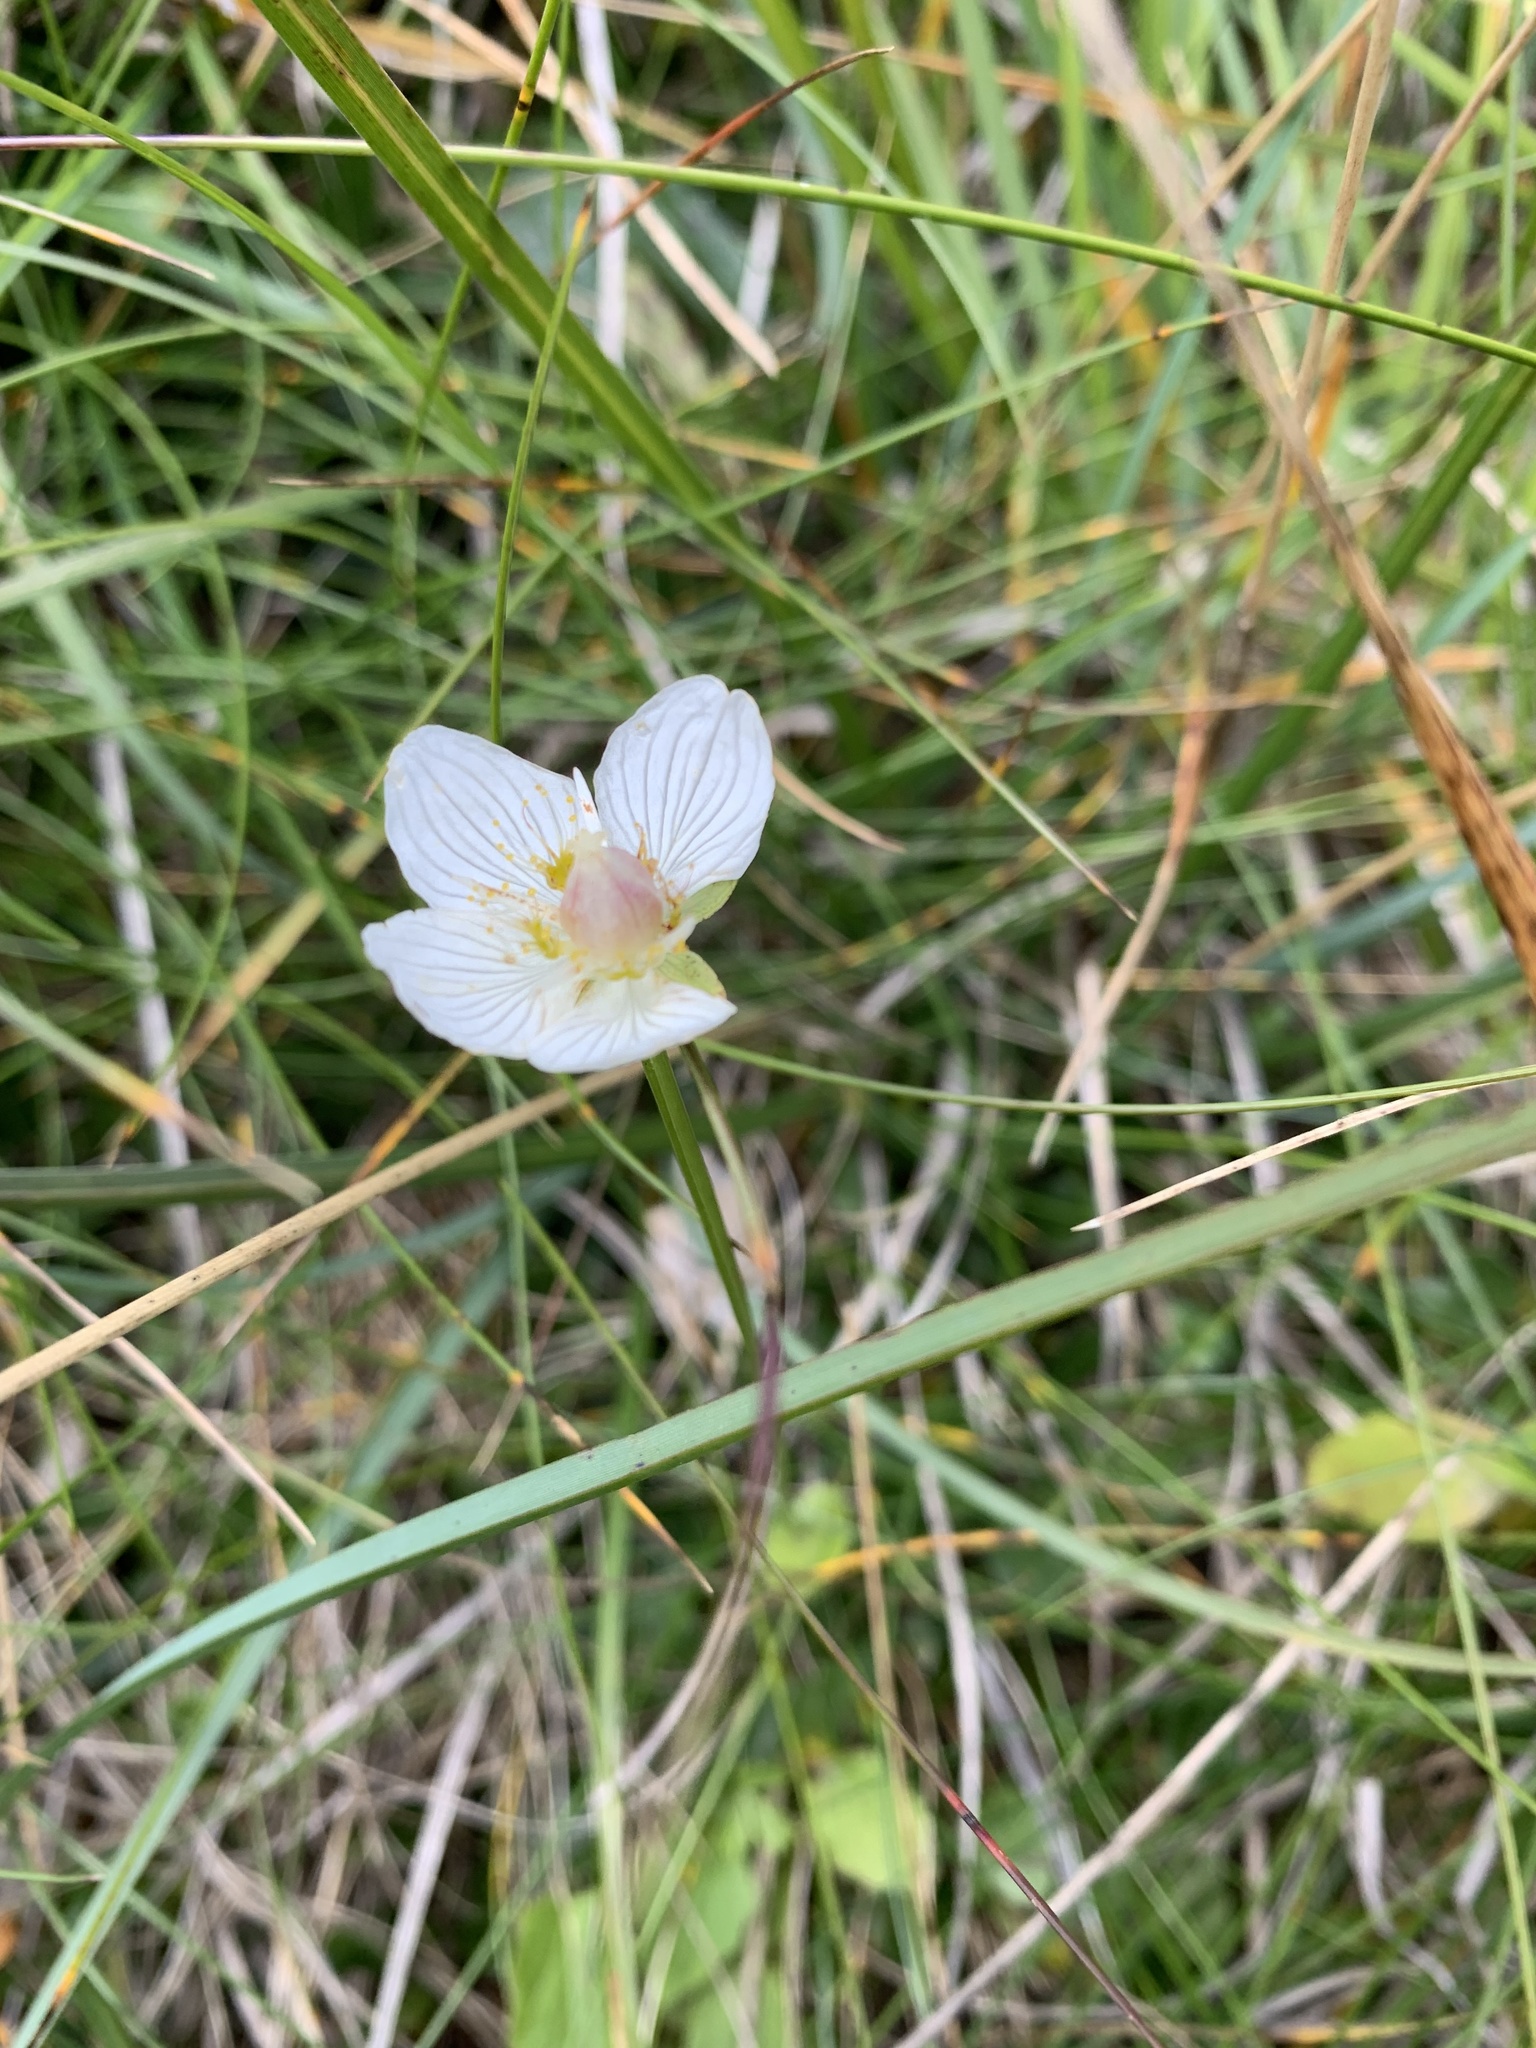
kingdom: Plantae
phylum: Tracheophyta
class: Magnoliopsida
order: Celastrales
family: Parnassiaceae
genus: Parnassia
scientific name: Parnassia palustris
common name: Grass-of-parnassus
